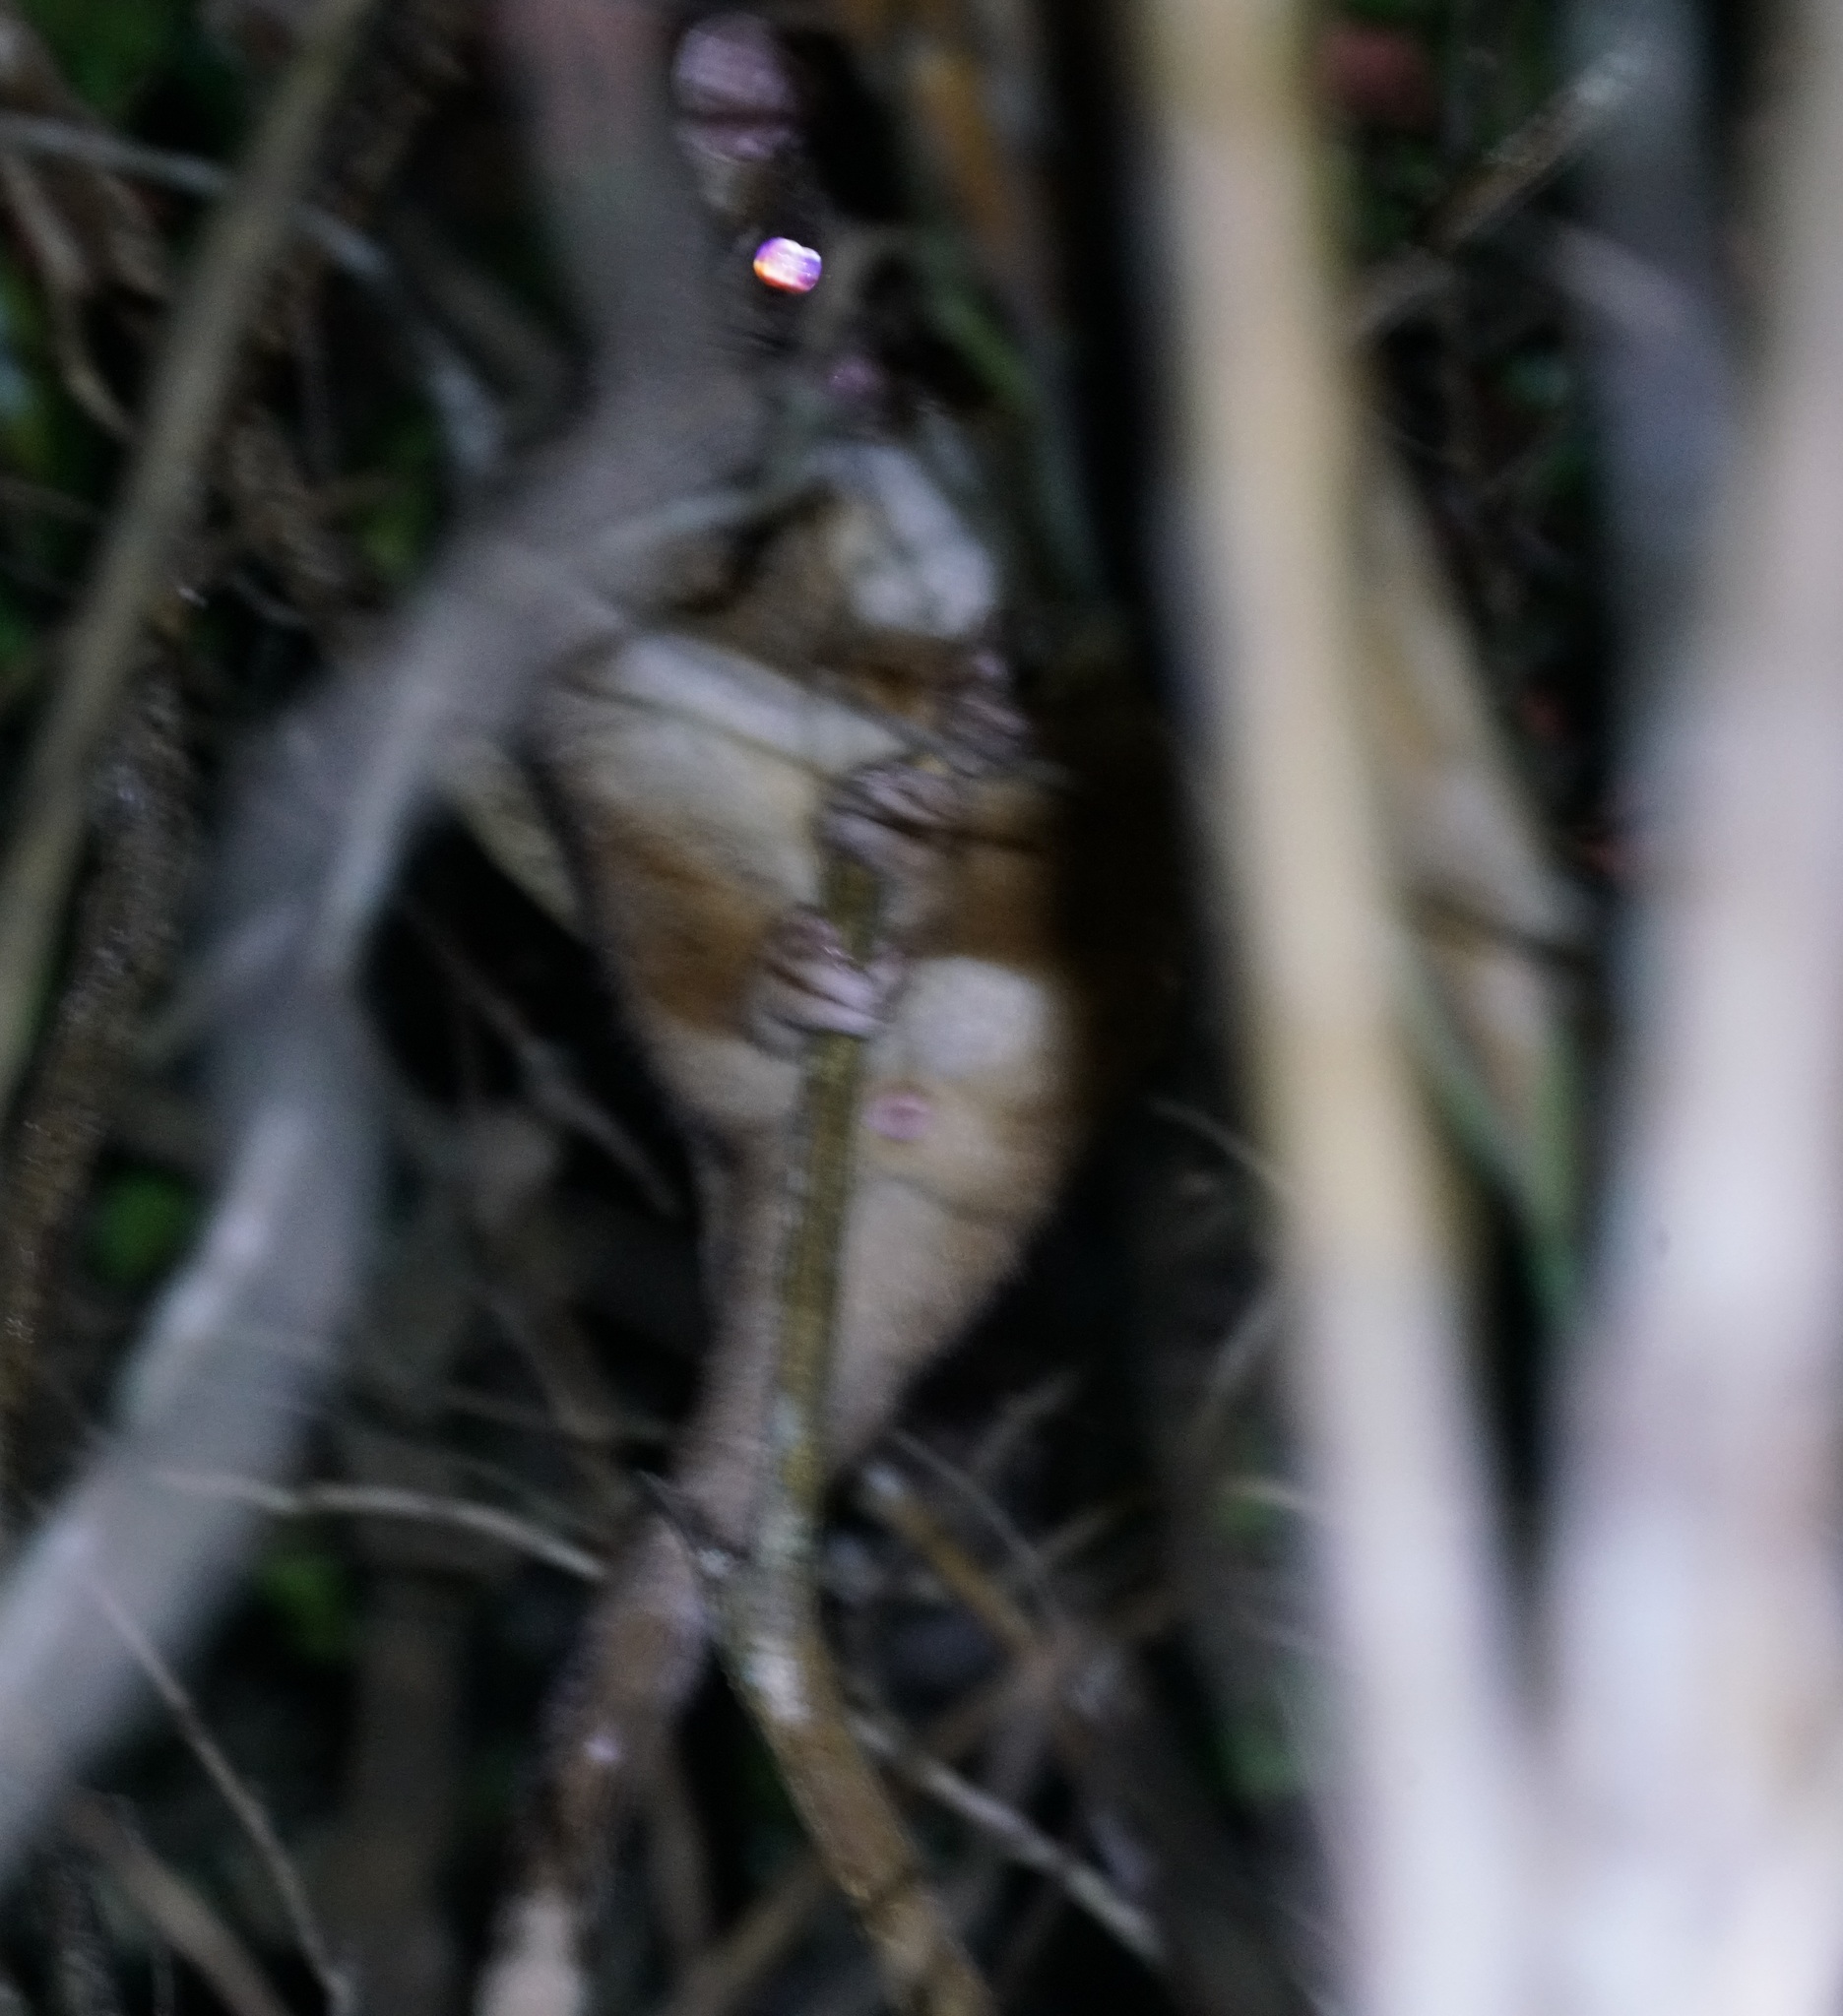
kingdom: Animalia
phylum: Chordata
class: Mammalia
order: Diprotodontia
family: Pseudocheiridae
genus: Pseudocheirus
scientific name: Pseudocheirus peregrinus
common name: Common ringtail possum
